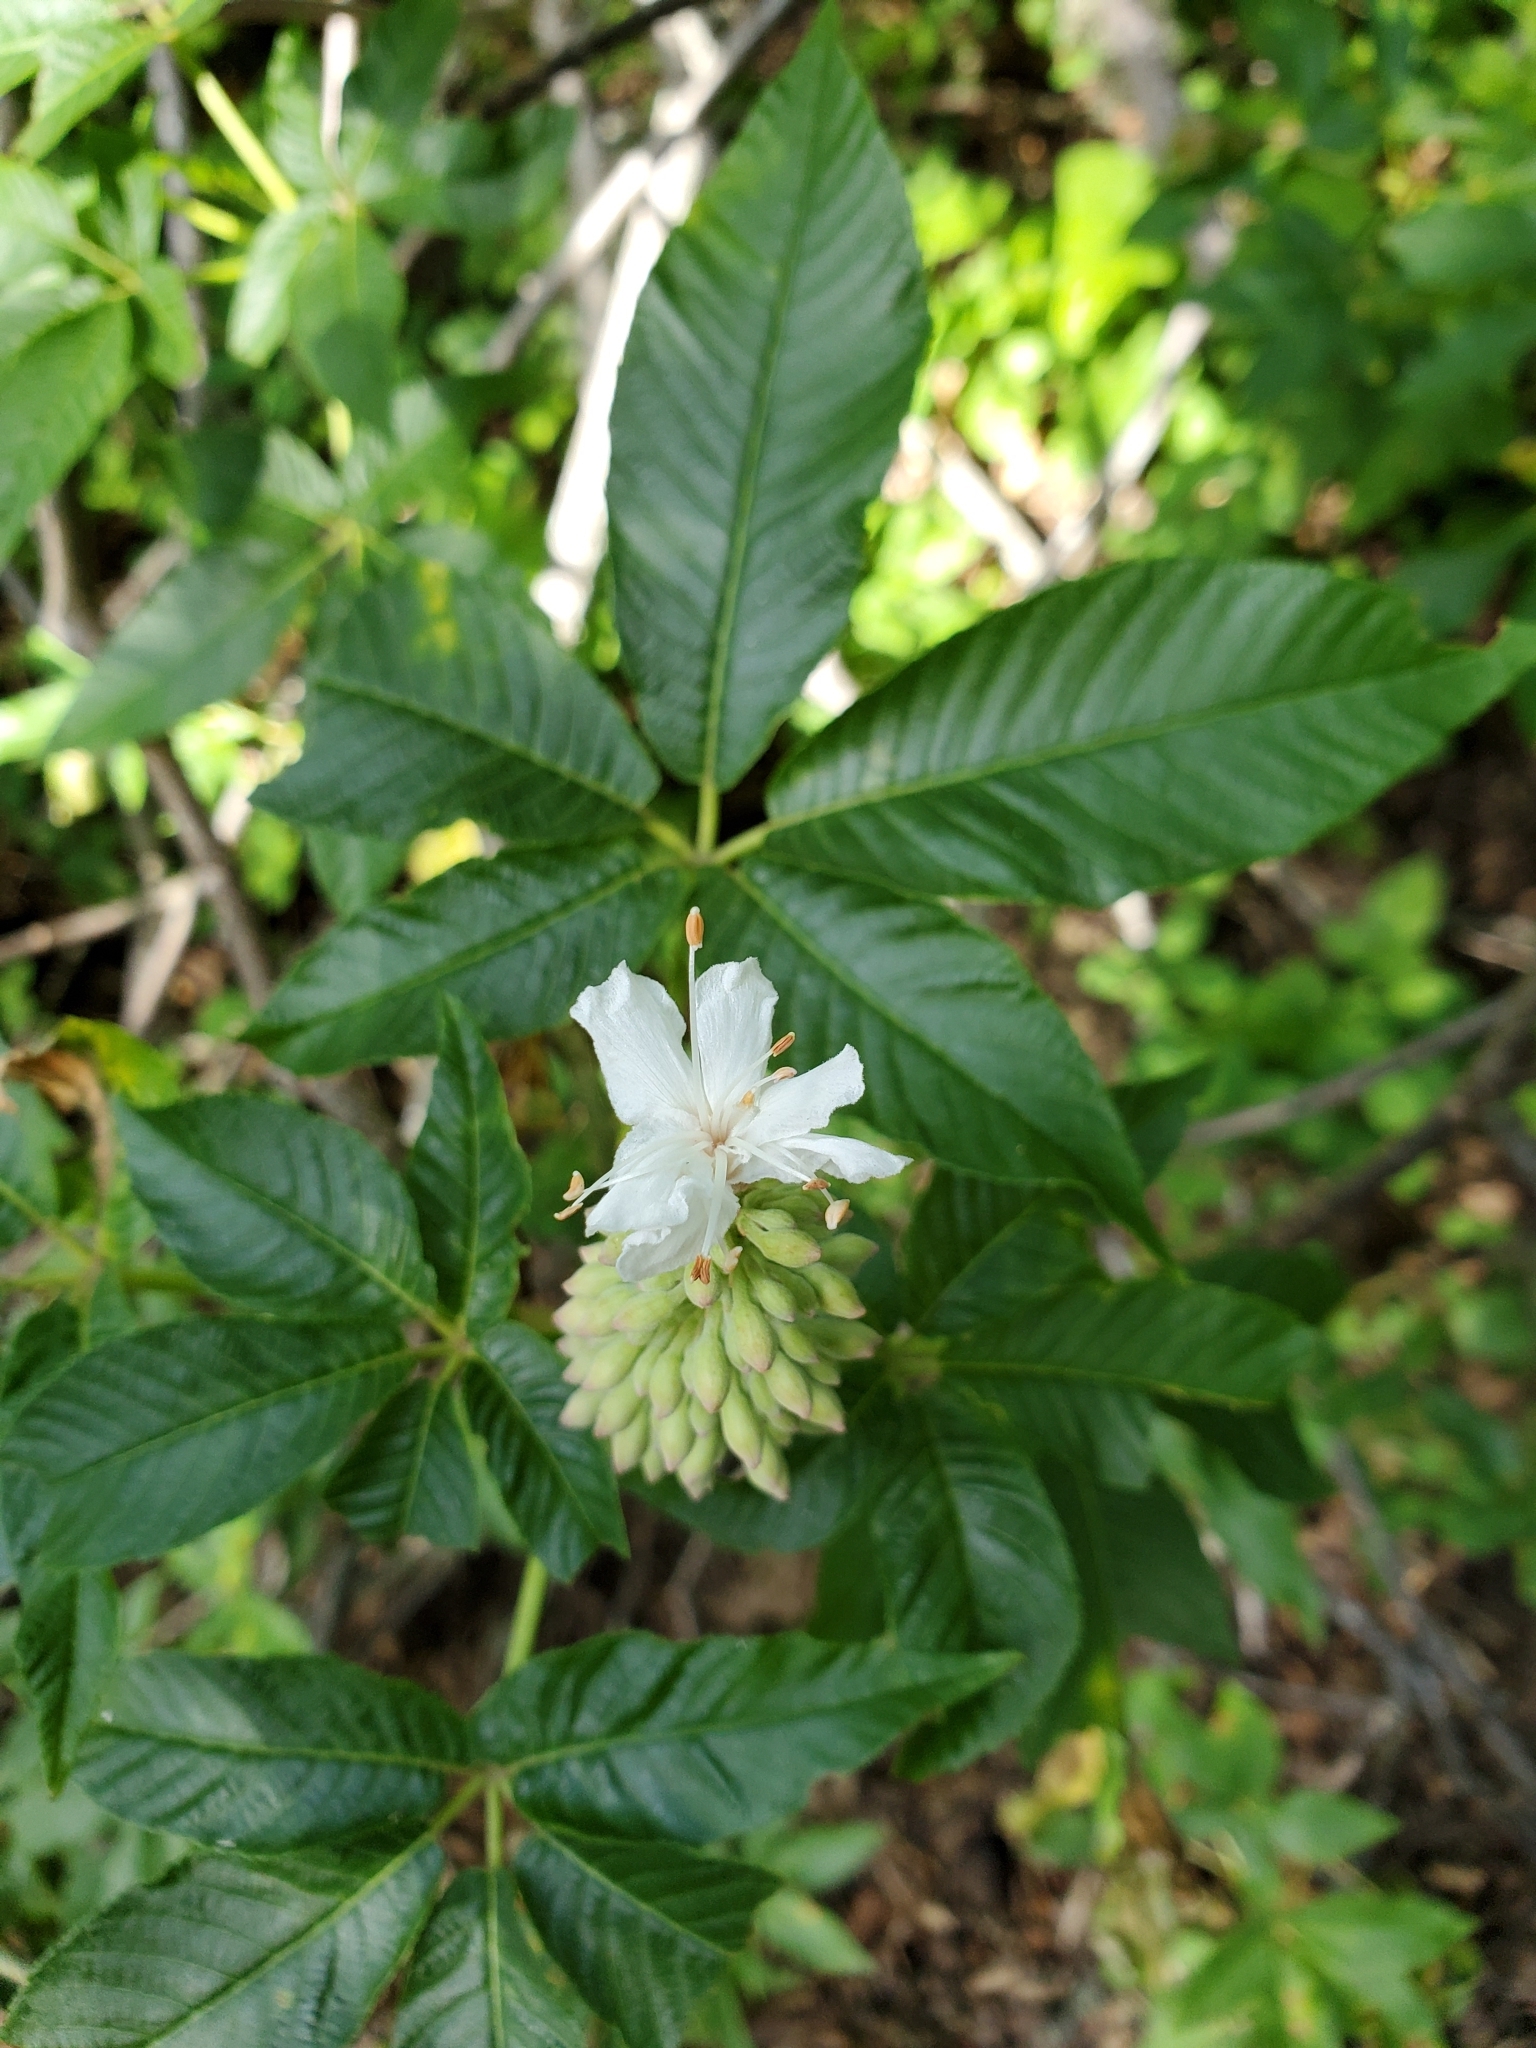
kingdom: Plantae
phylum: Tracheophyta
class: Magnoliopsida
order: Sapindales
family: Sapindaceae
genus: Aesculus
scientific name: Aesculus californica
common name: California buckeye
